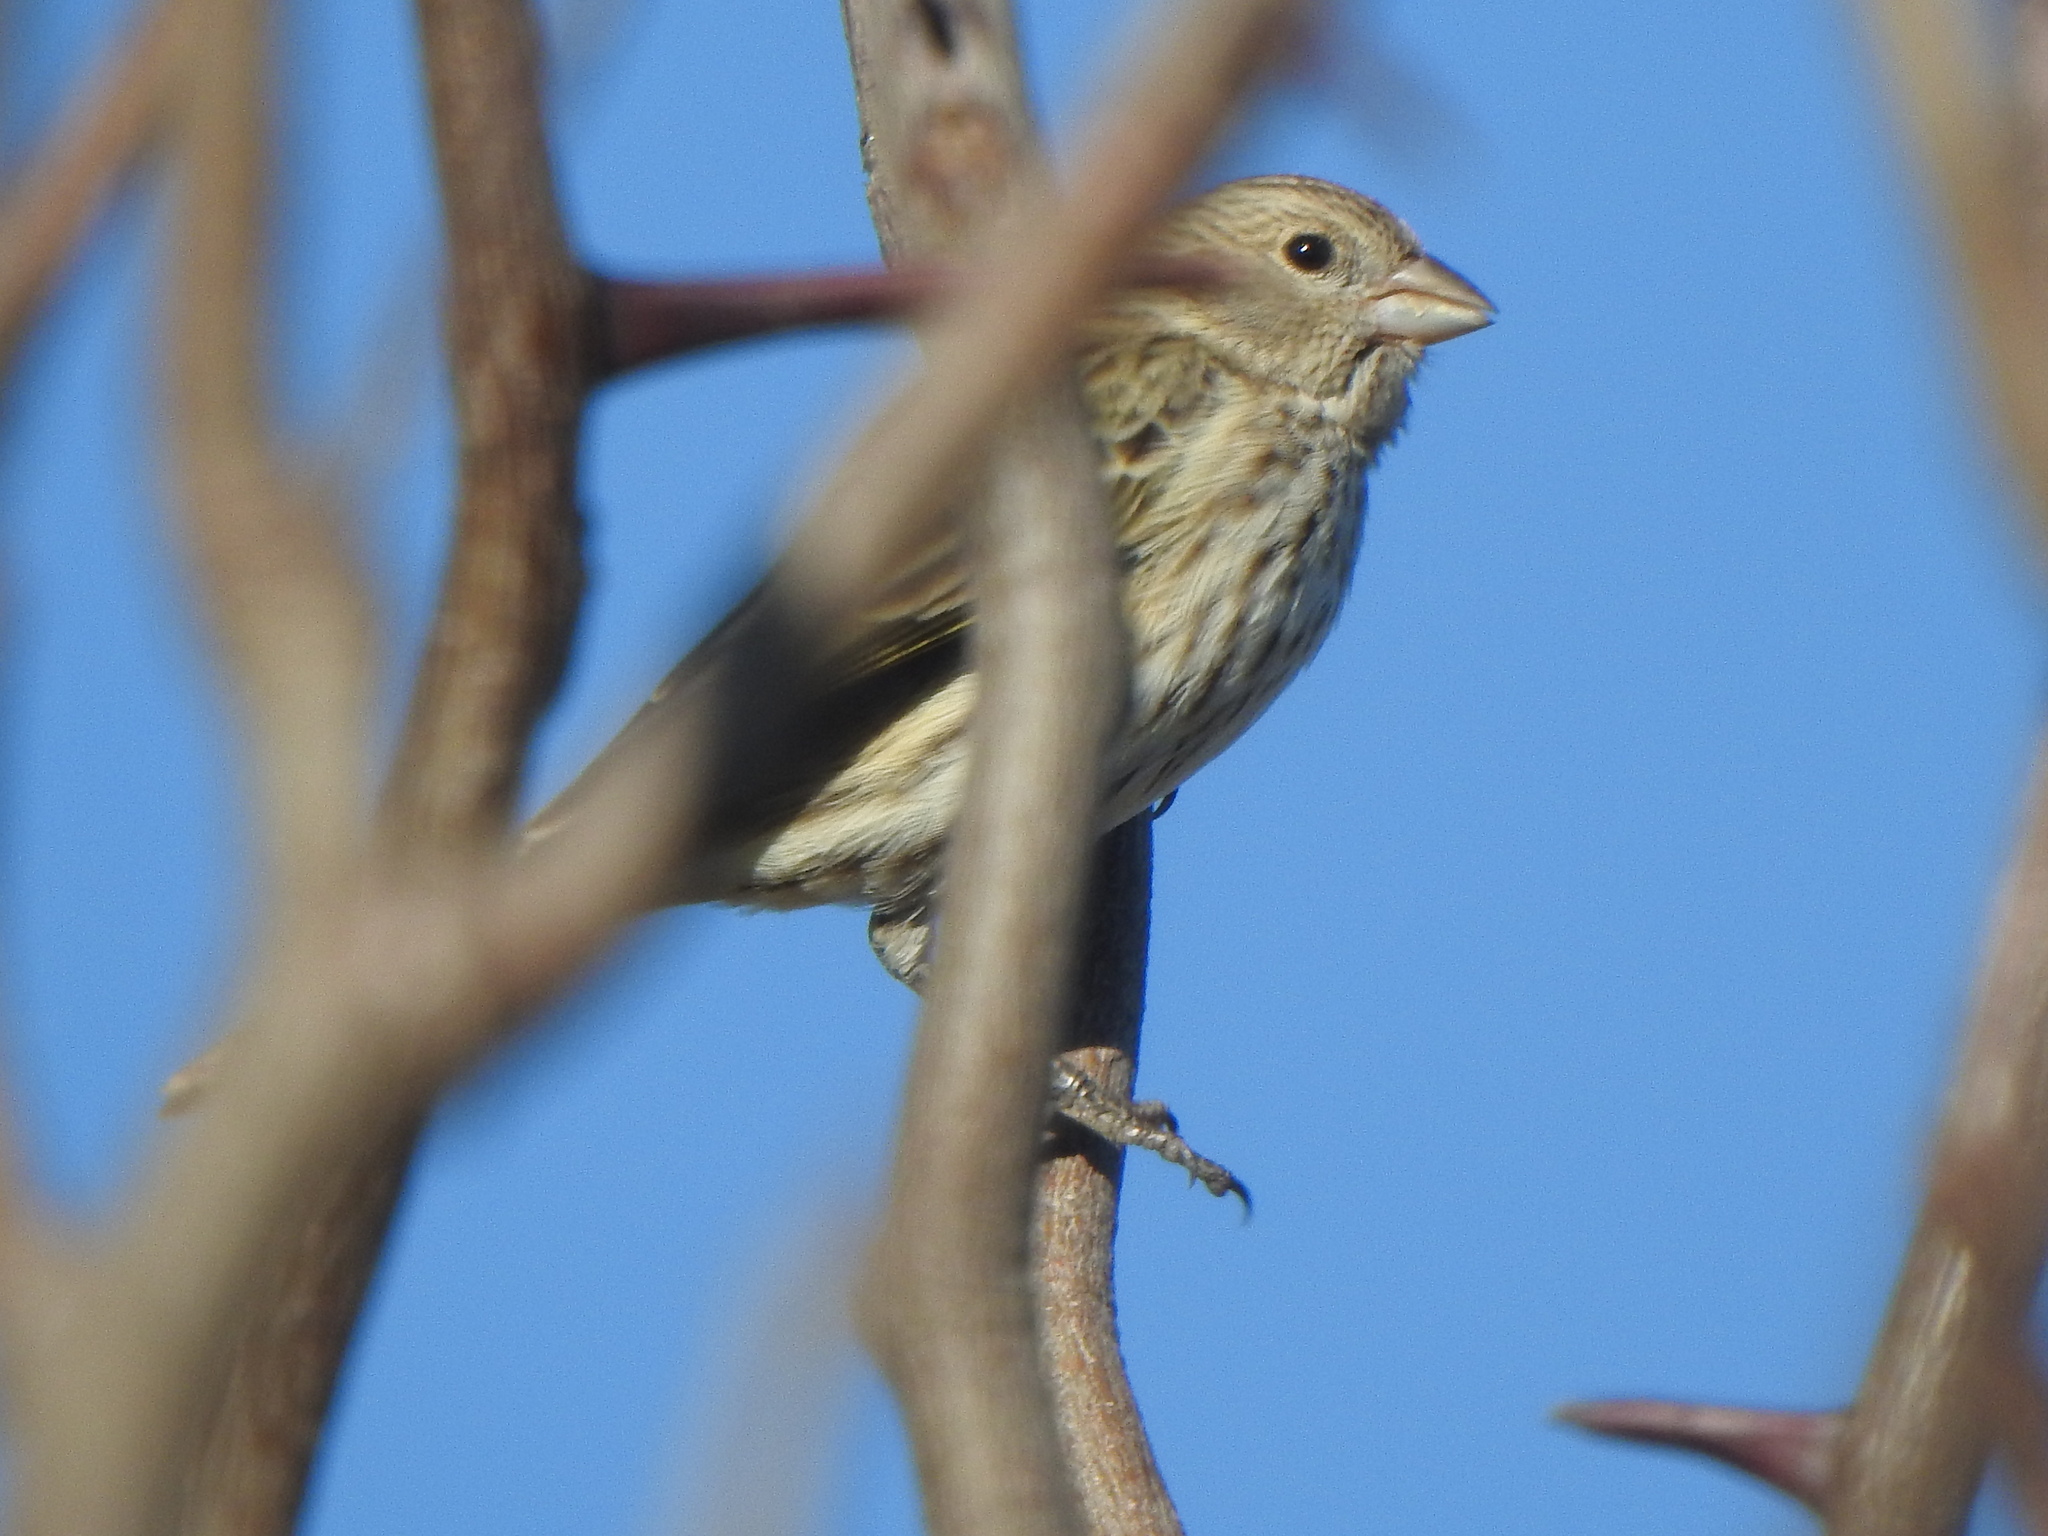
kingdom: Animalia
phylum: Chordata
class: Aves
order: Passeriformes
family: Thraupidae
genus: Sicalis
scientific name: Sicalis flaveola
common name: Saffron finch
